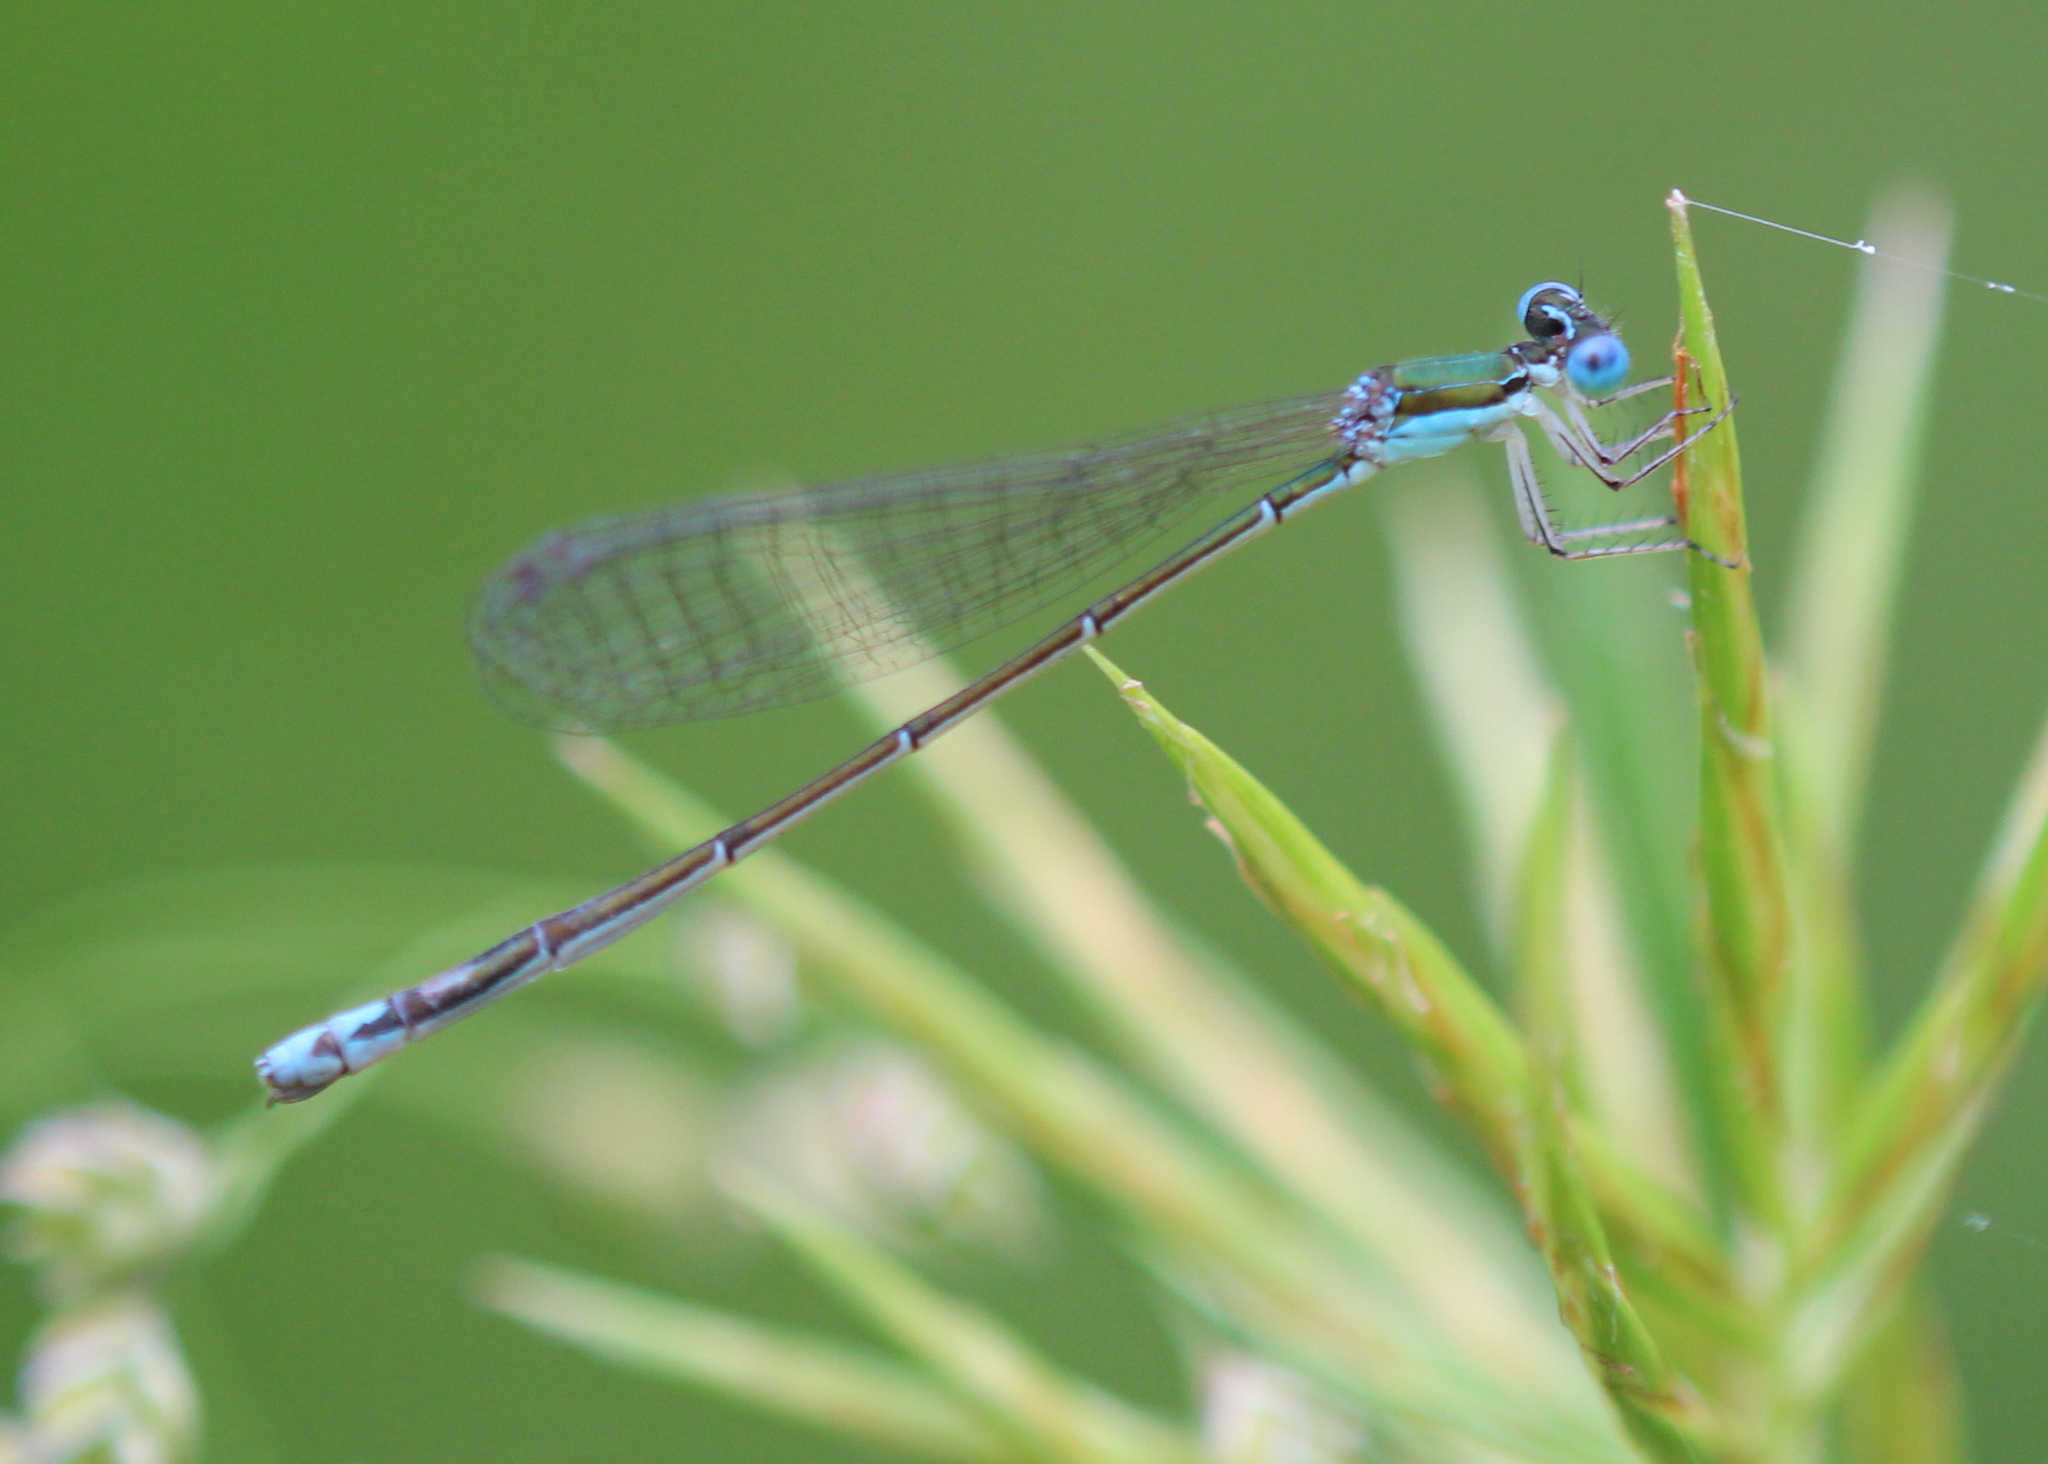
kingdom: Animalia
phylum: Arthropoda
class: Insecta
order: Odonata
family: Coenagrionidae
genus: Nehalennia
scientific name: Nehalennia gracilis
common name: Sphagnum sprite
